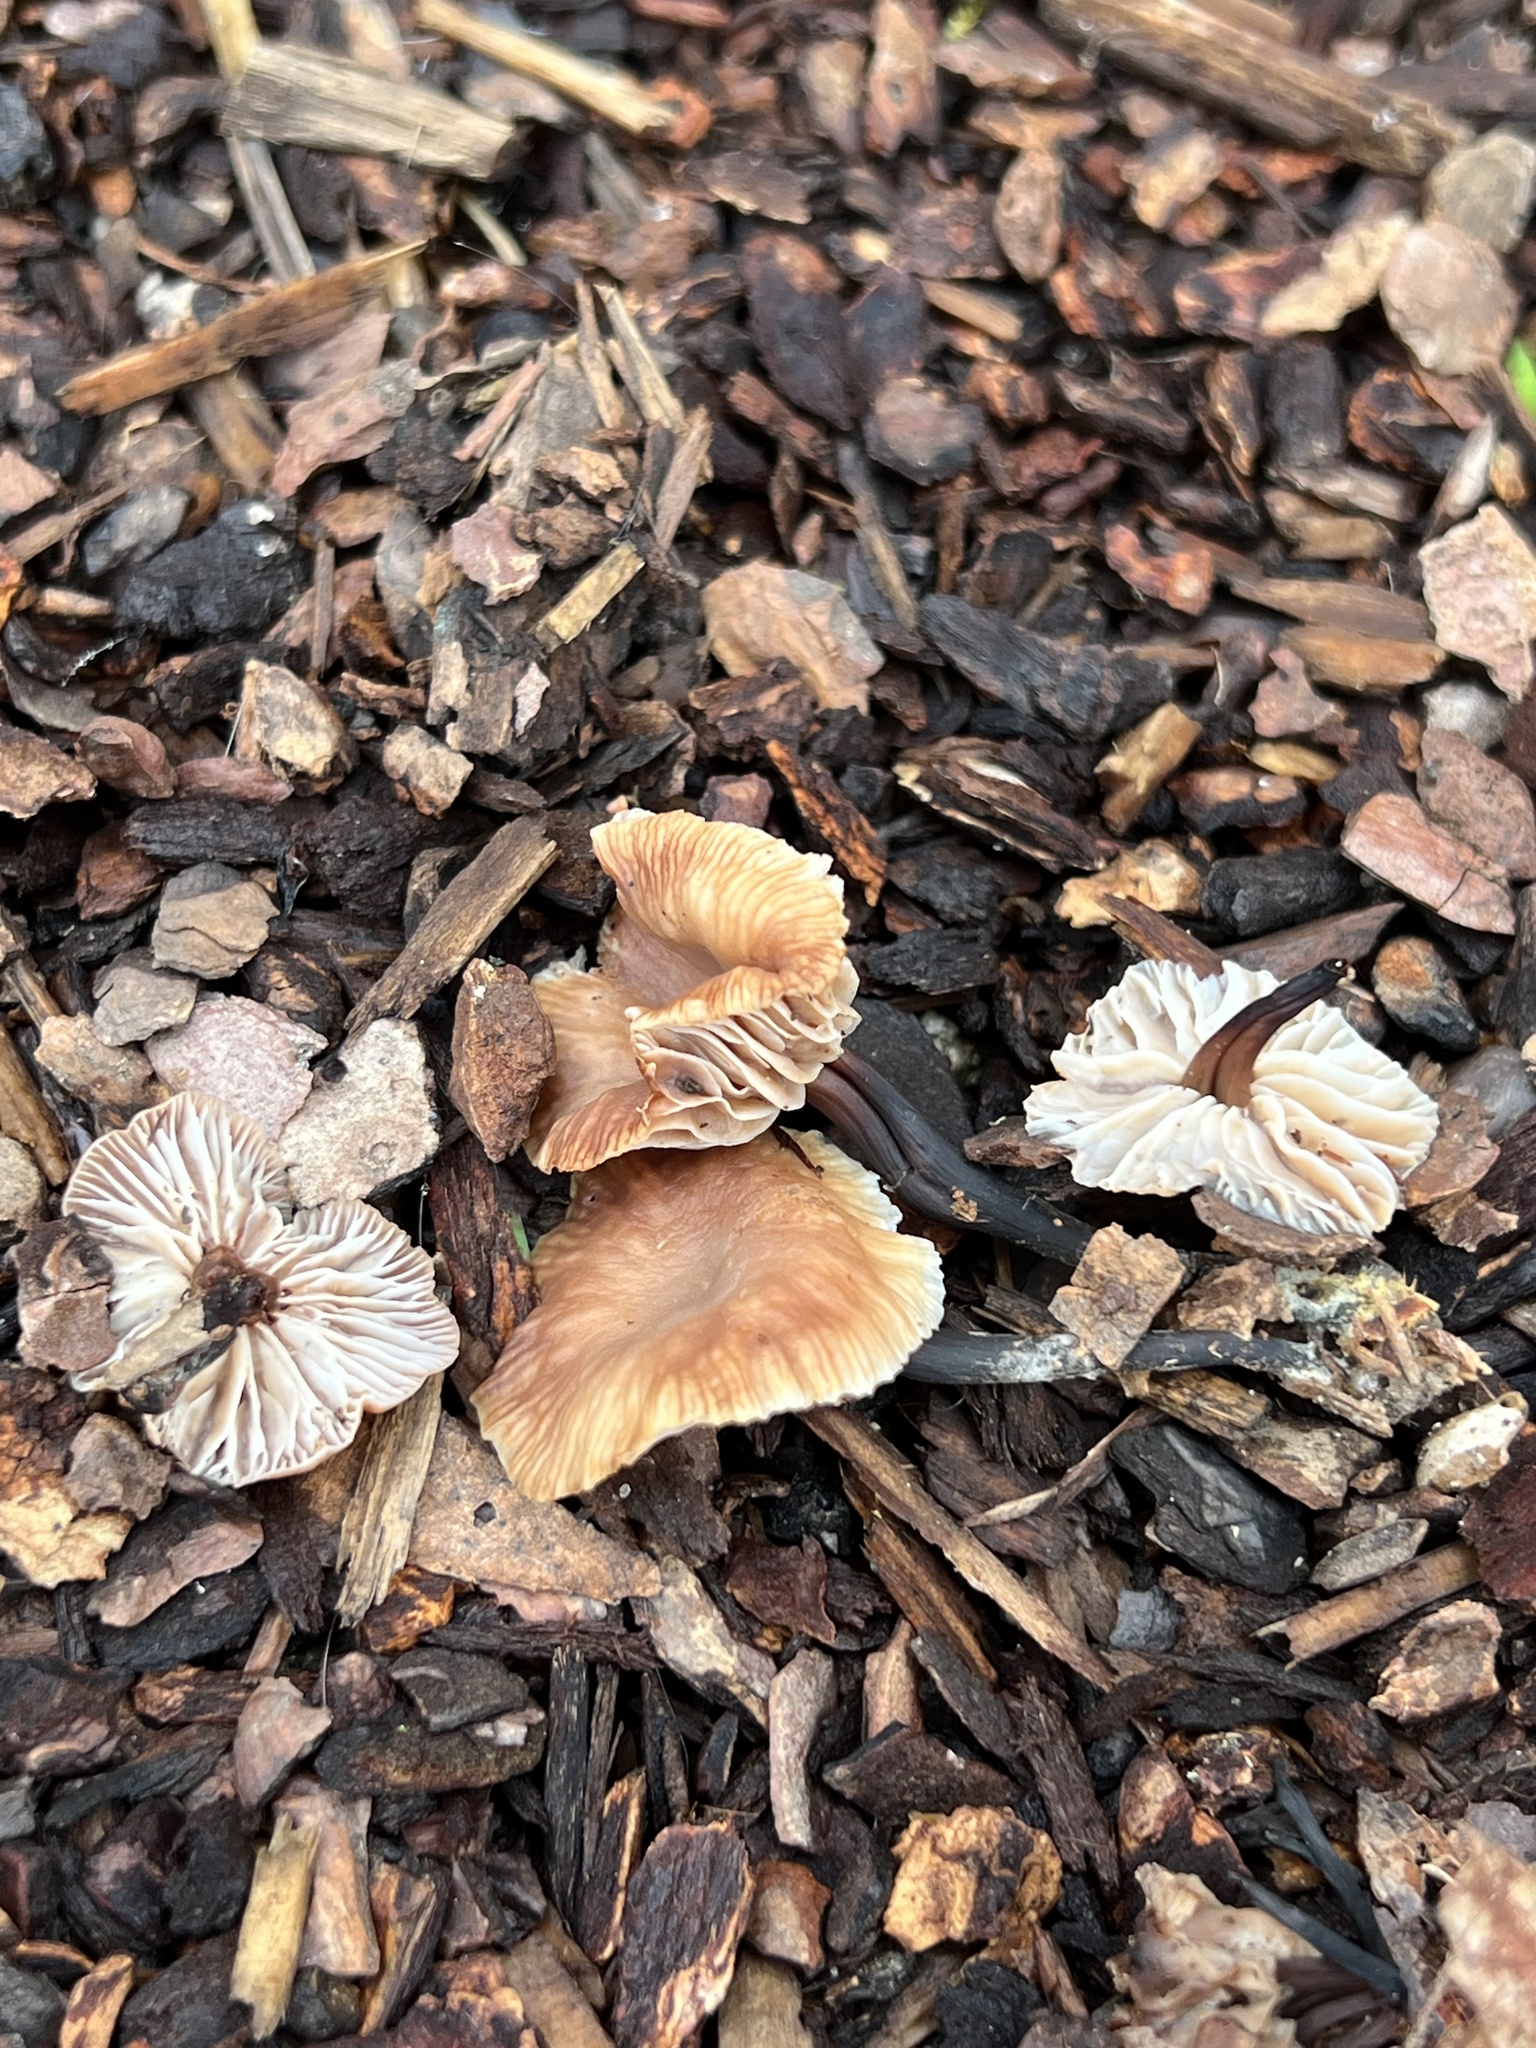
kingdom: Fungi
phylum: Basidiomycota
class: Agaricomycetes
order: Agaricales
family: Omphalotaceae
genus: Gymnopus
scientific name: Gymnopus brassicolens
